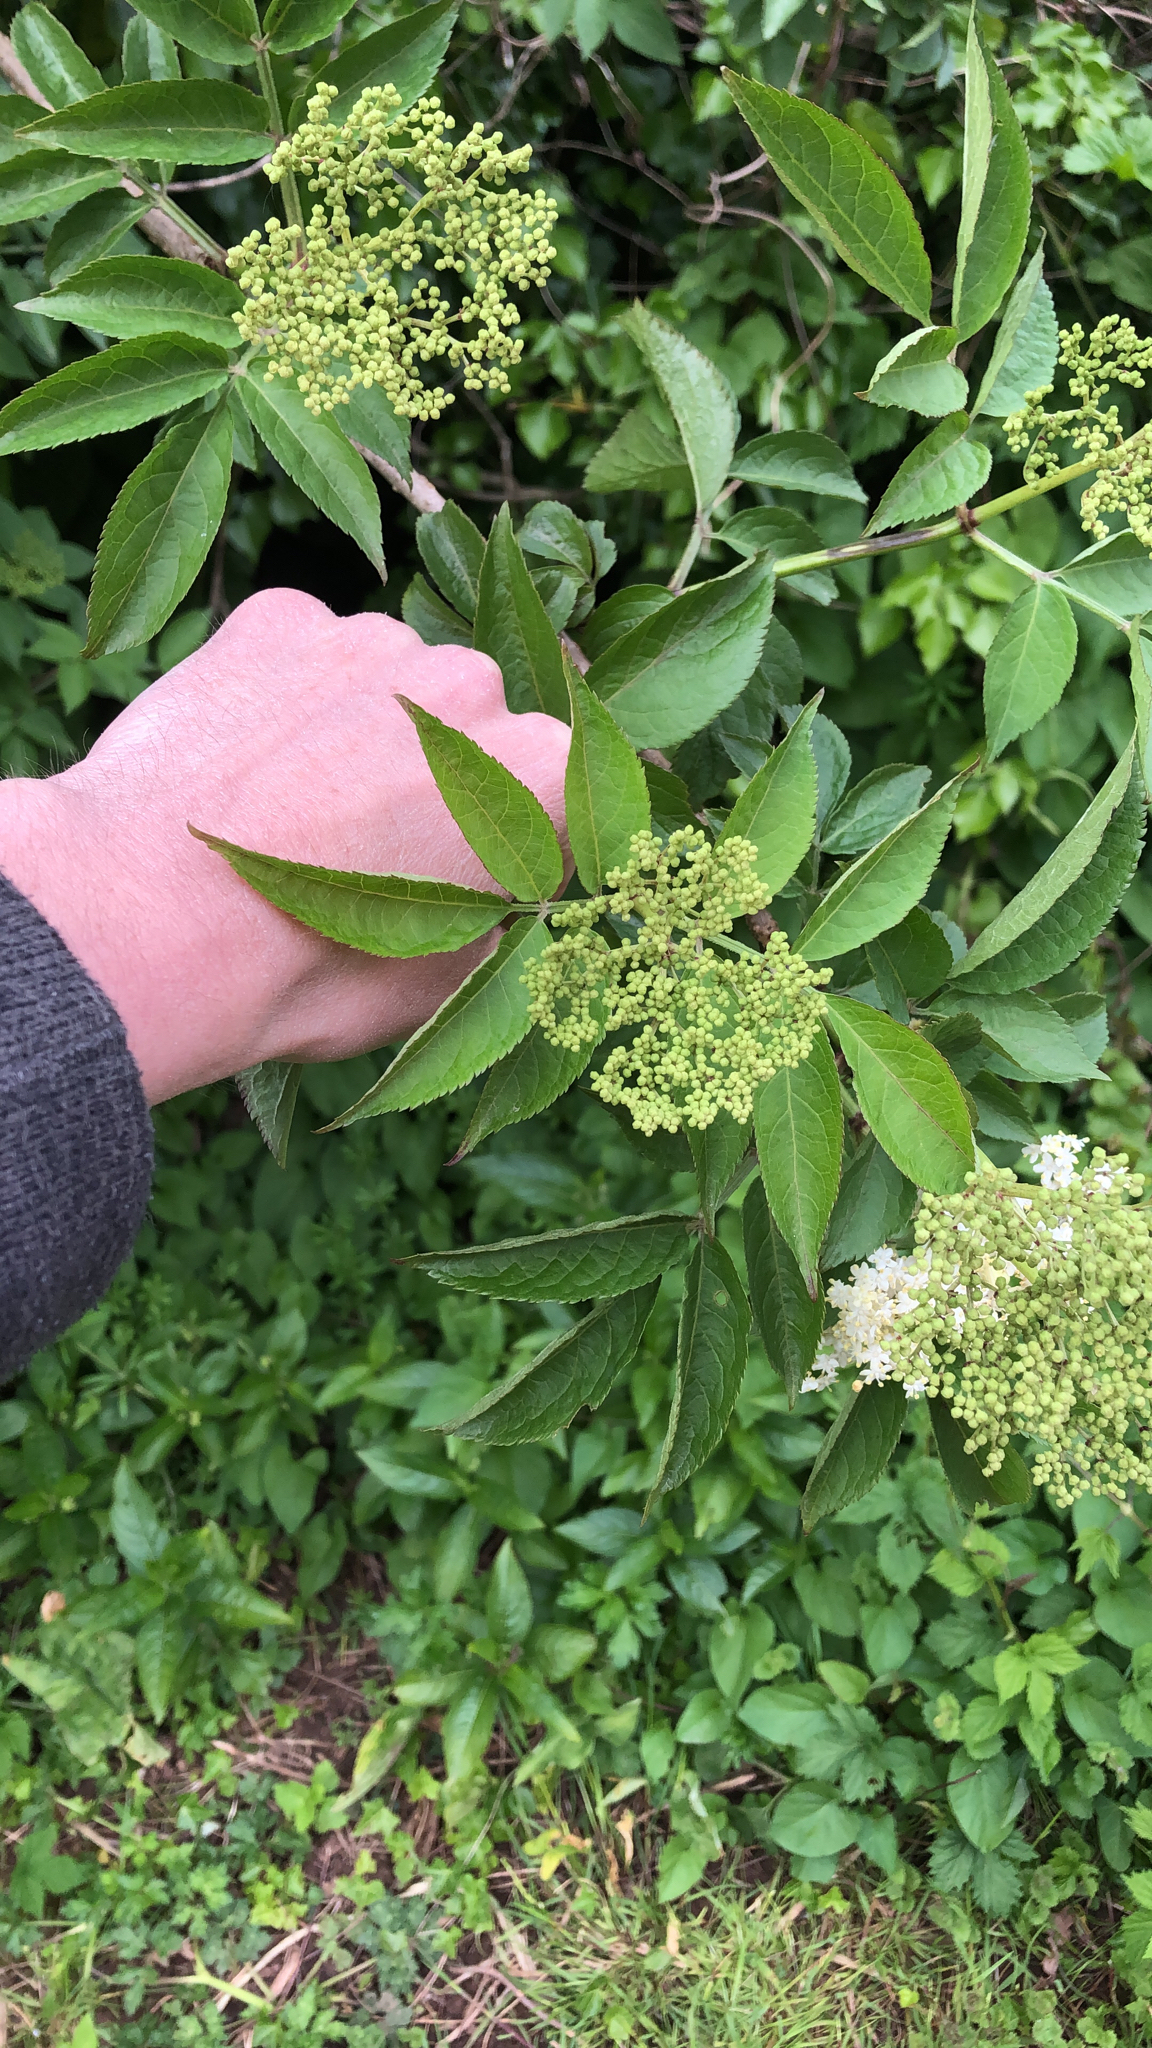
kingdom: Plantae
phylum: Tracheophyta
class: Magnoliopsida
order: Dipsacales
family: Viburnaceae
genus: Sambucus
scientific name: Sambucus nigra
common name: Elder
